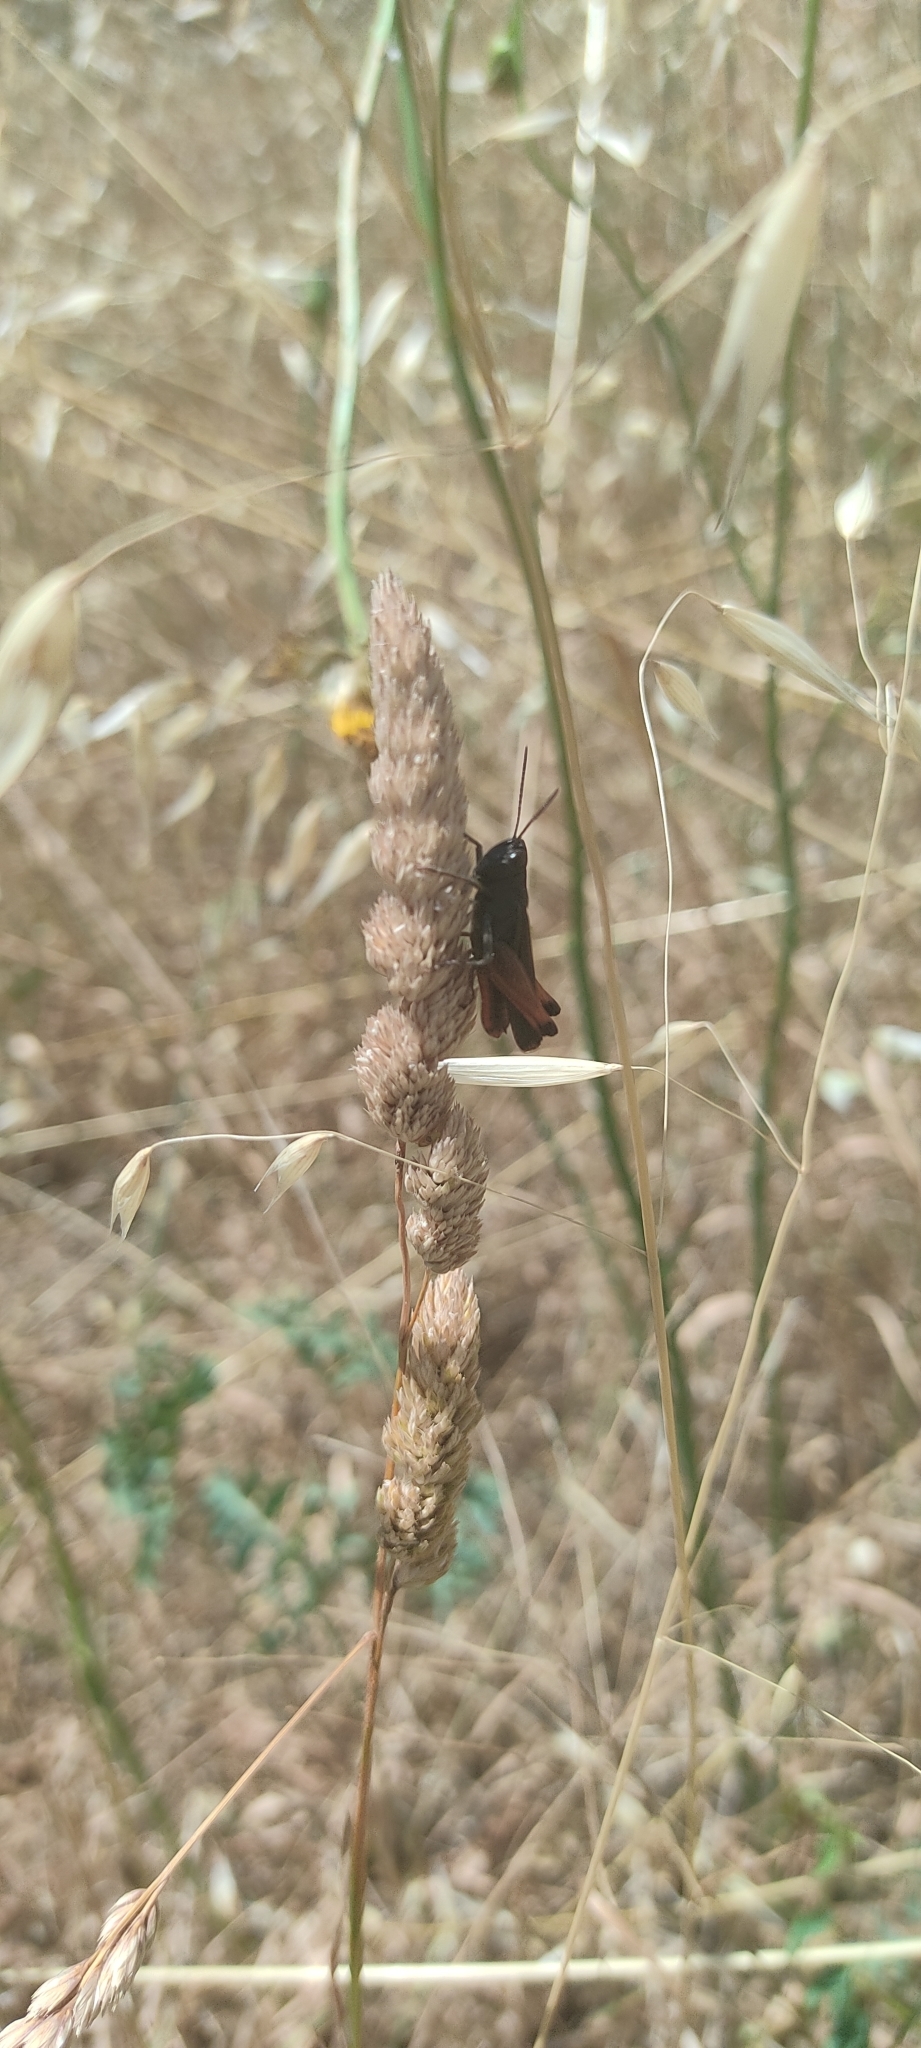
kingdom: Animalia
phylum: Arthropoda
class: Insecta
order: Orthoptera
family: Acrididae
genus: Omocestus
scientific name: Omocestus rufipes
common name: Woodland grasshopper
